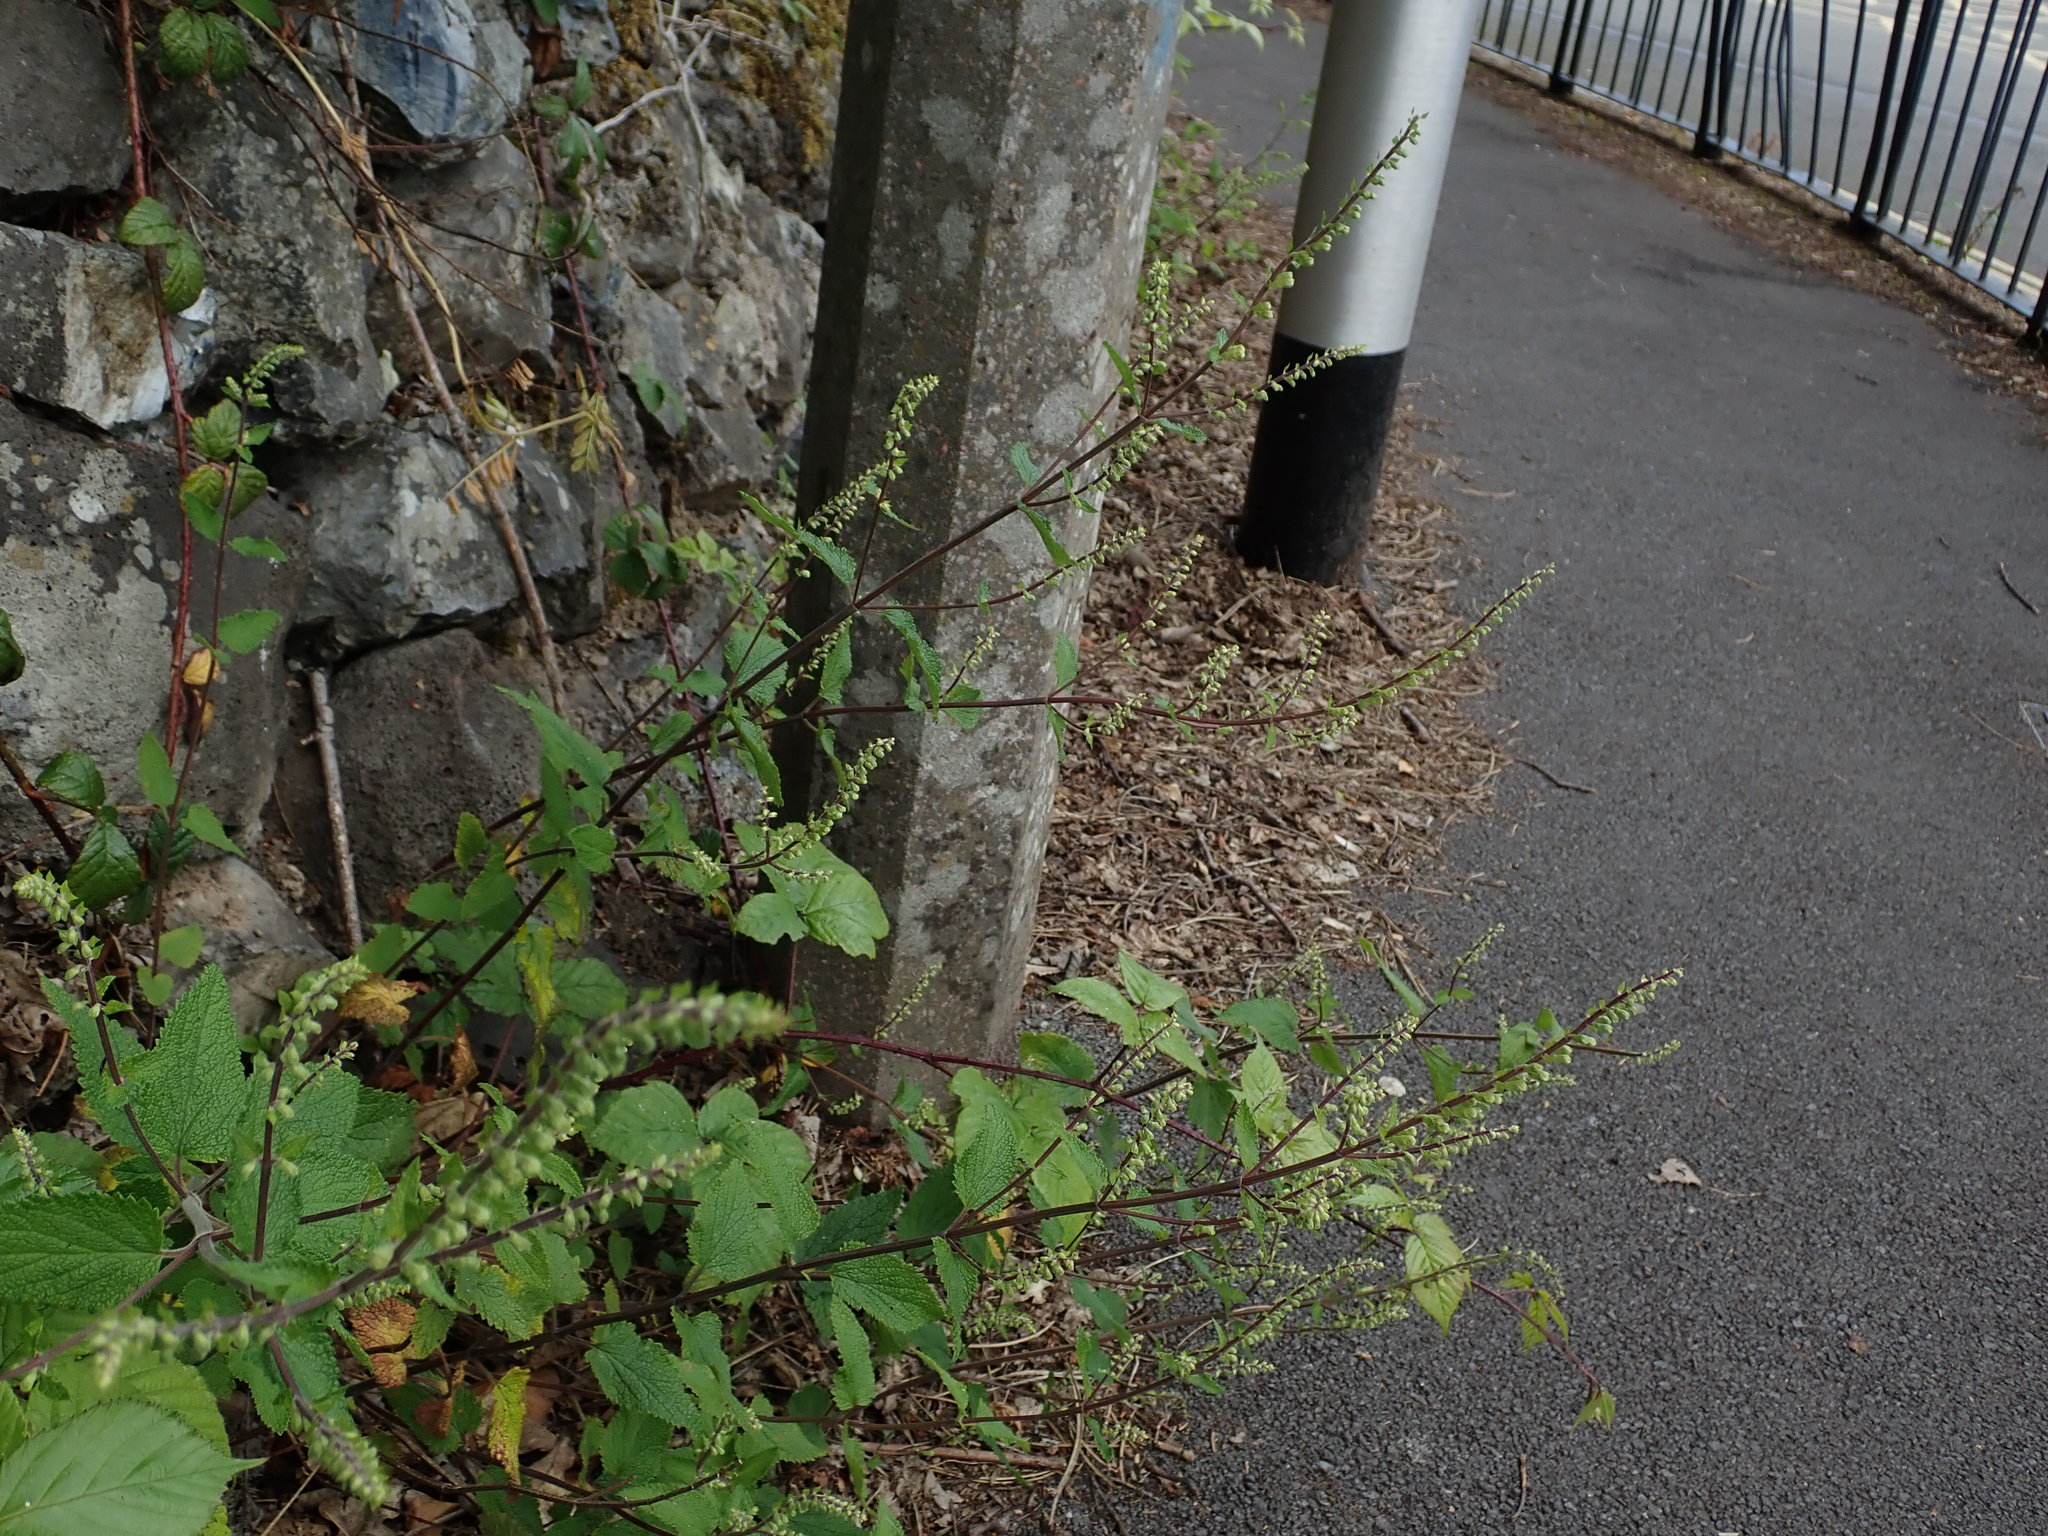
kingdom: Plantae
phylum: Tracheophyta
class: Magnoliopsida
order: Lamiales
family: Lamiaceae
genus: Teucrium
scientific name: Teucrium scorodonia
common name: Woodland germander
